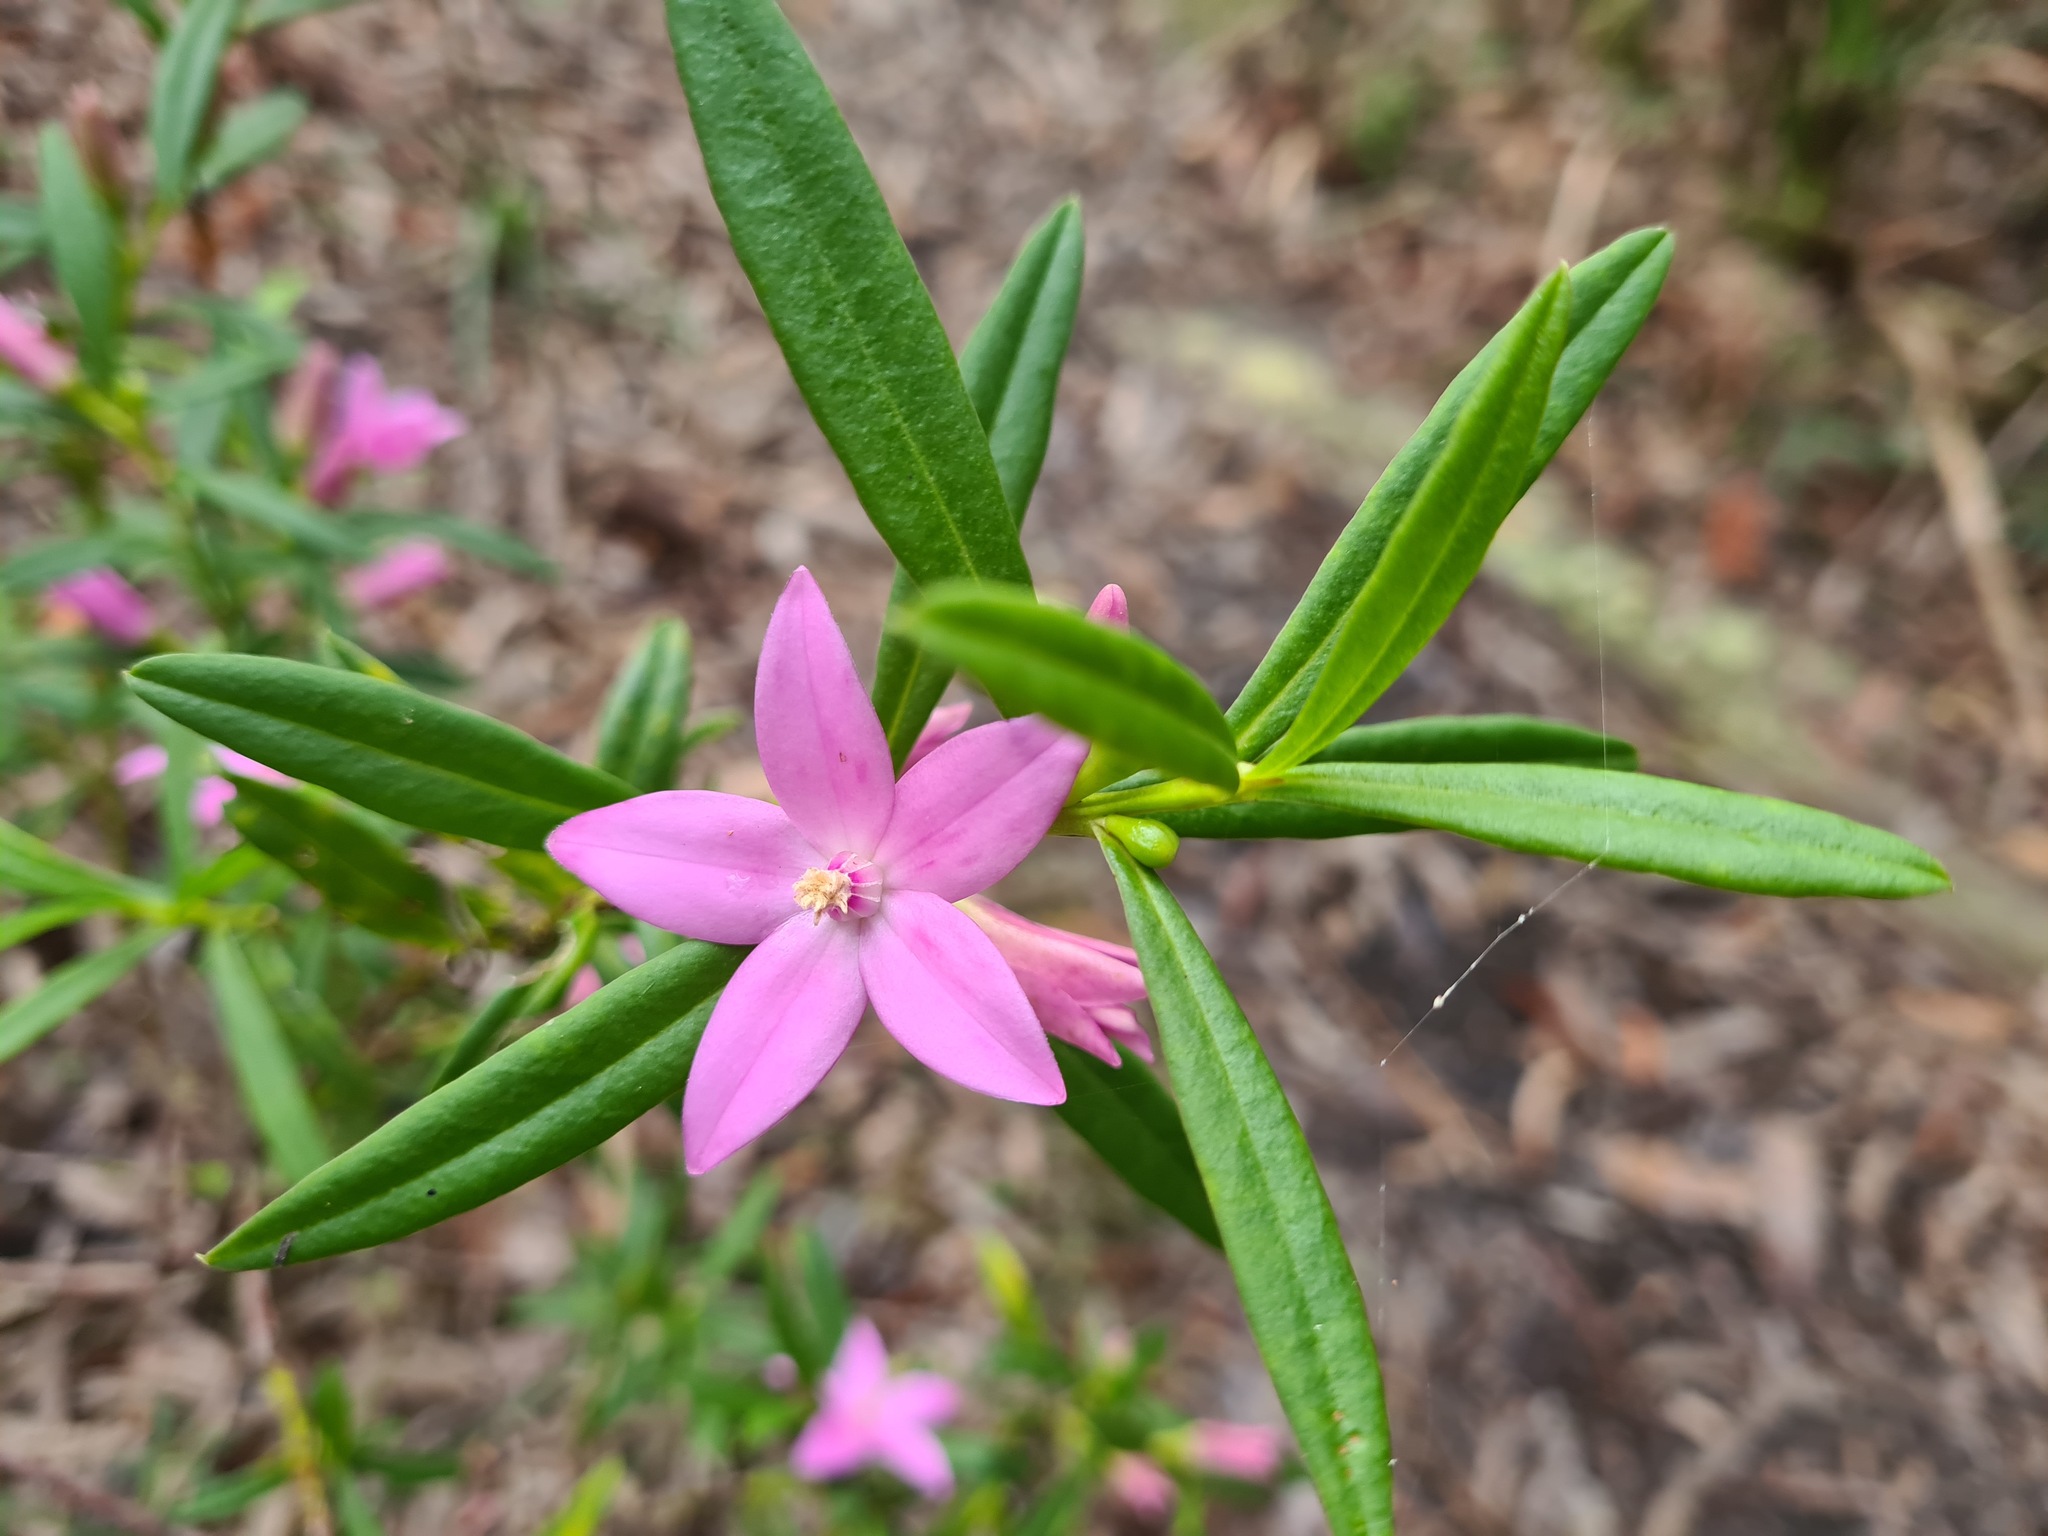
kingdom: Plantae
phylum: Tracheophyta
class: Magnoliopsida
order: Sapindales
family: Rutaceae
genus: Crowea
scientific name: Crowea saligna
